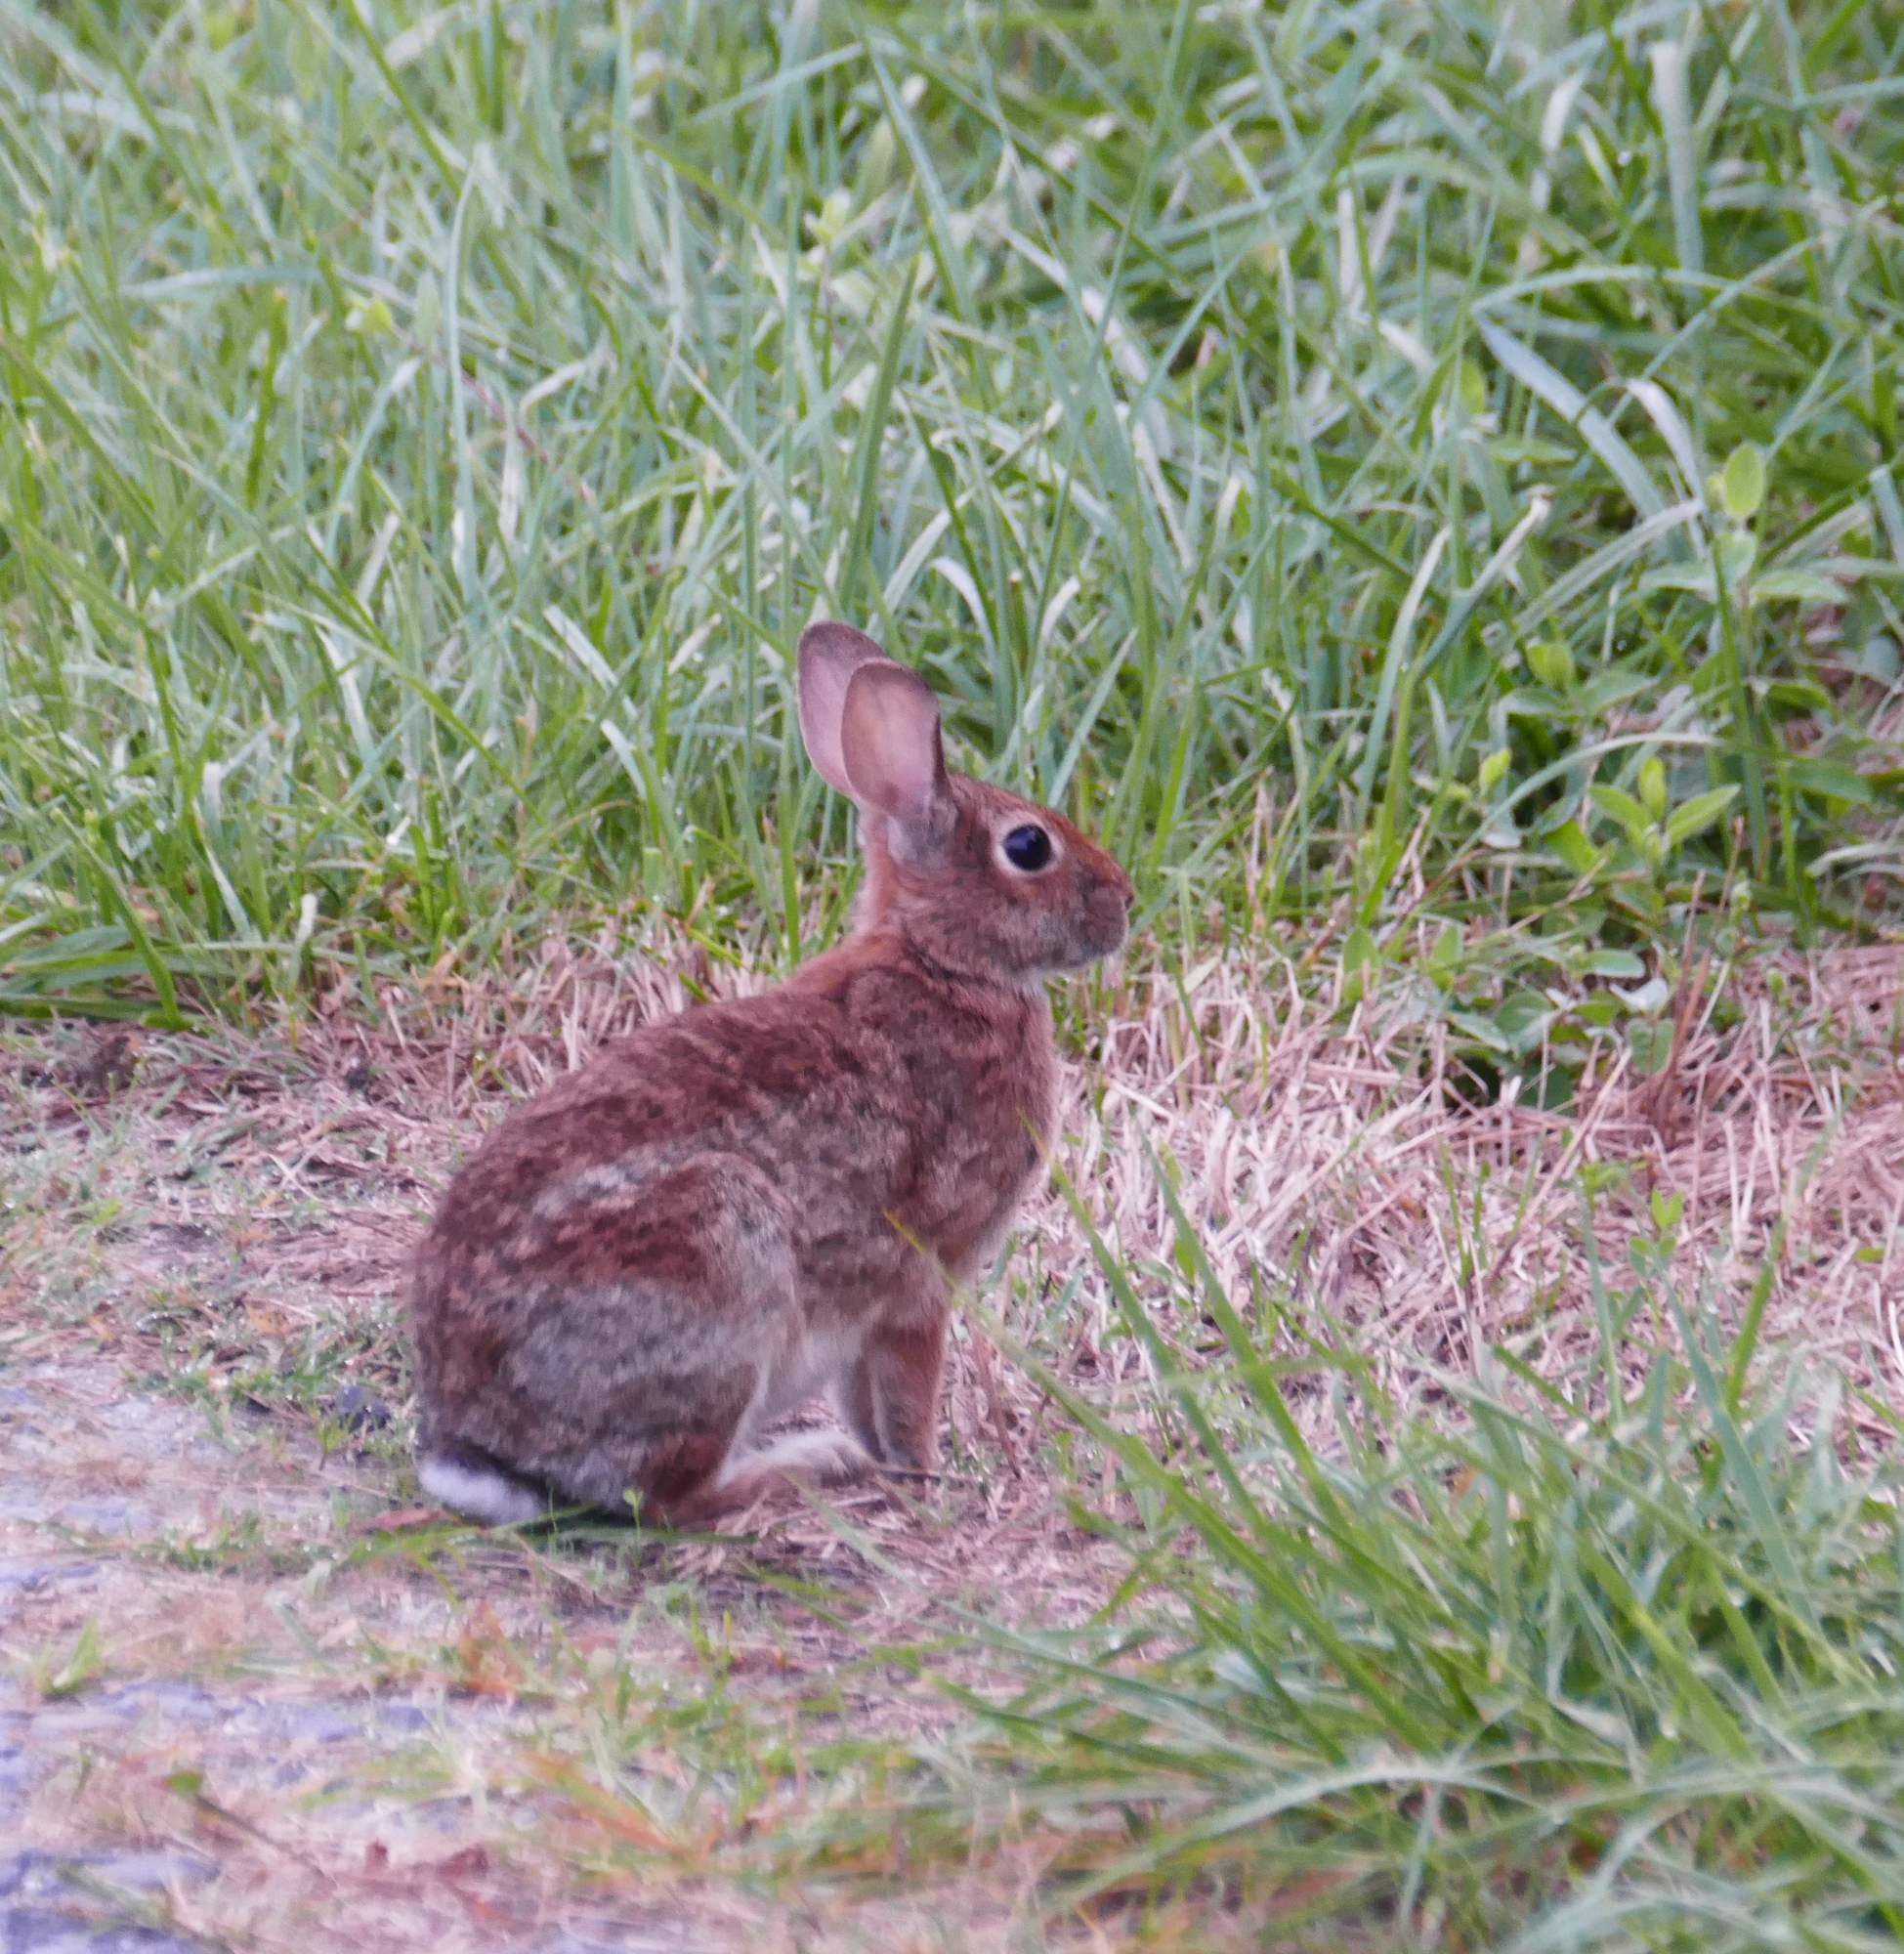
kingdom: Animalia
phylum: Chordata
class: Mammalia
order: Lagomorpha
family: Leporidae
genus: Sylvilagus
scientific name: Sylvilagus floridanus
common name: Eastern cottontail
